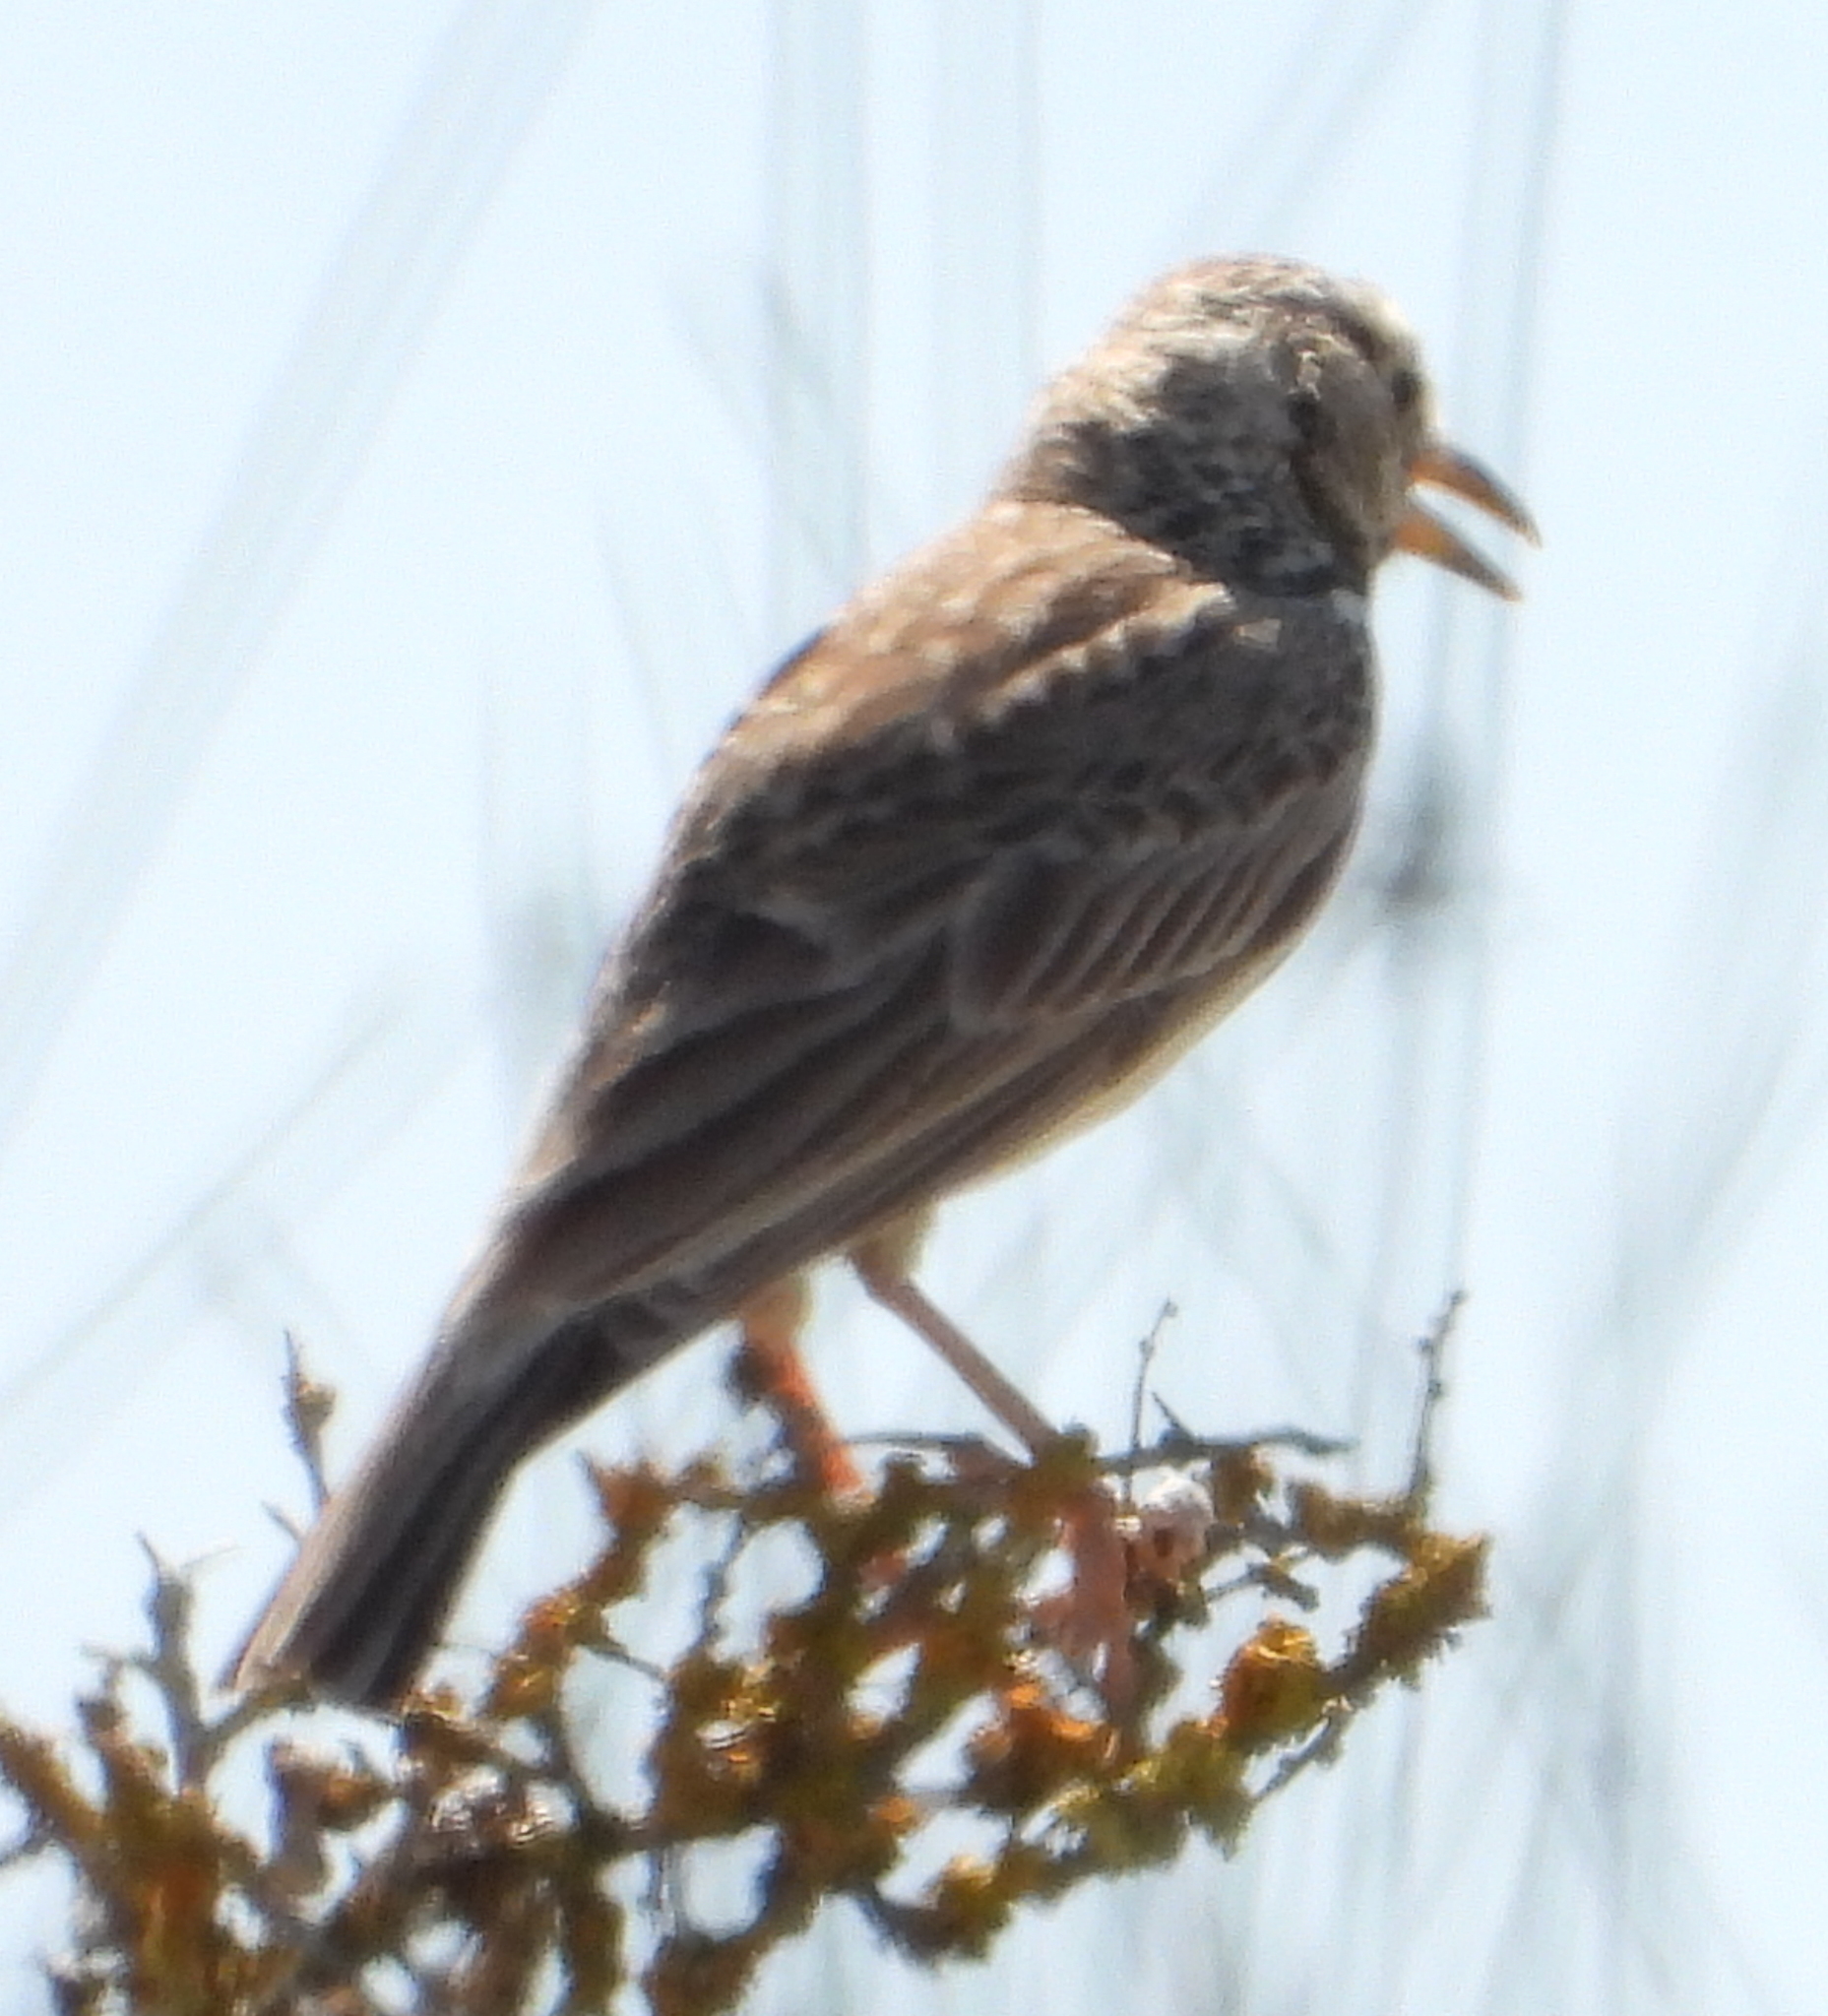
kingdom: Animalia
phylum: Chordata
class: Aves
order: Passeriformes
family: Alaudidae
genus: Galerida
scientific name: Galerida magnirostris
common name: Large-billed lark
